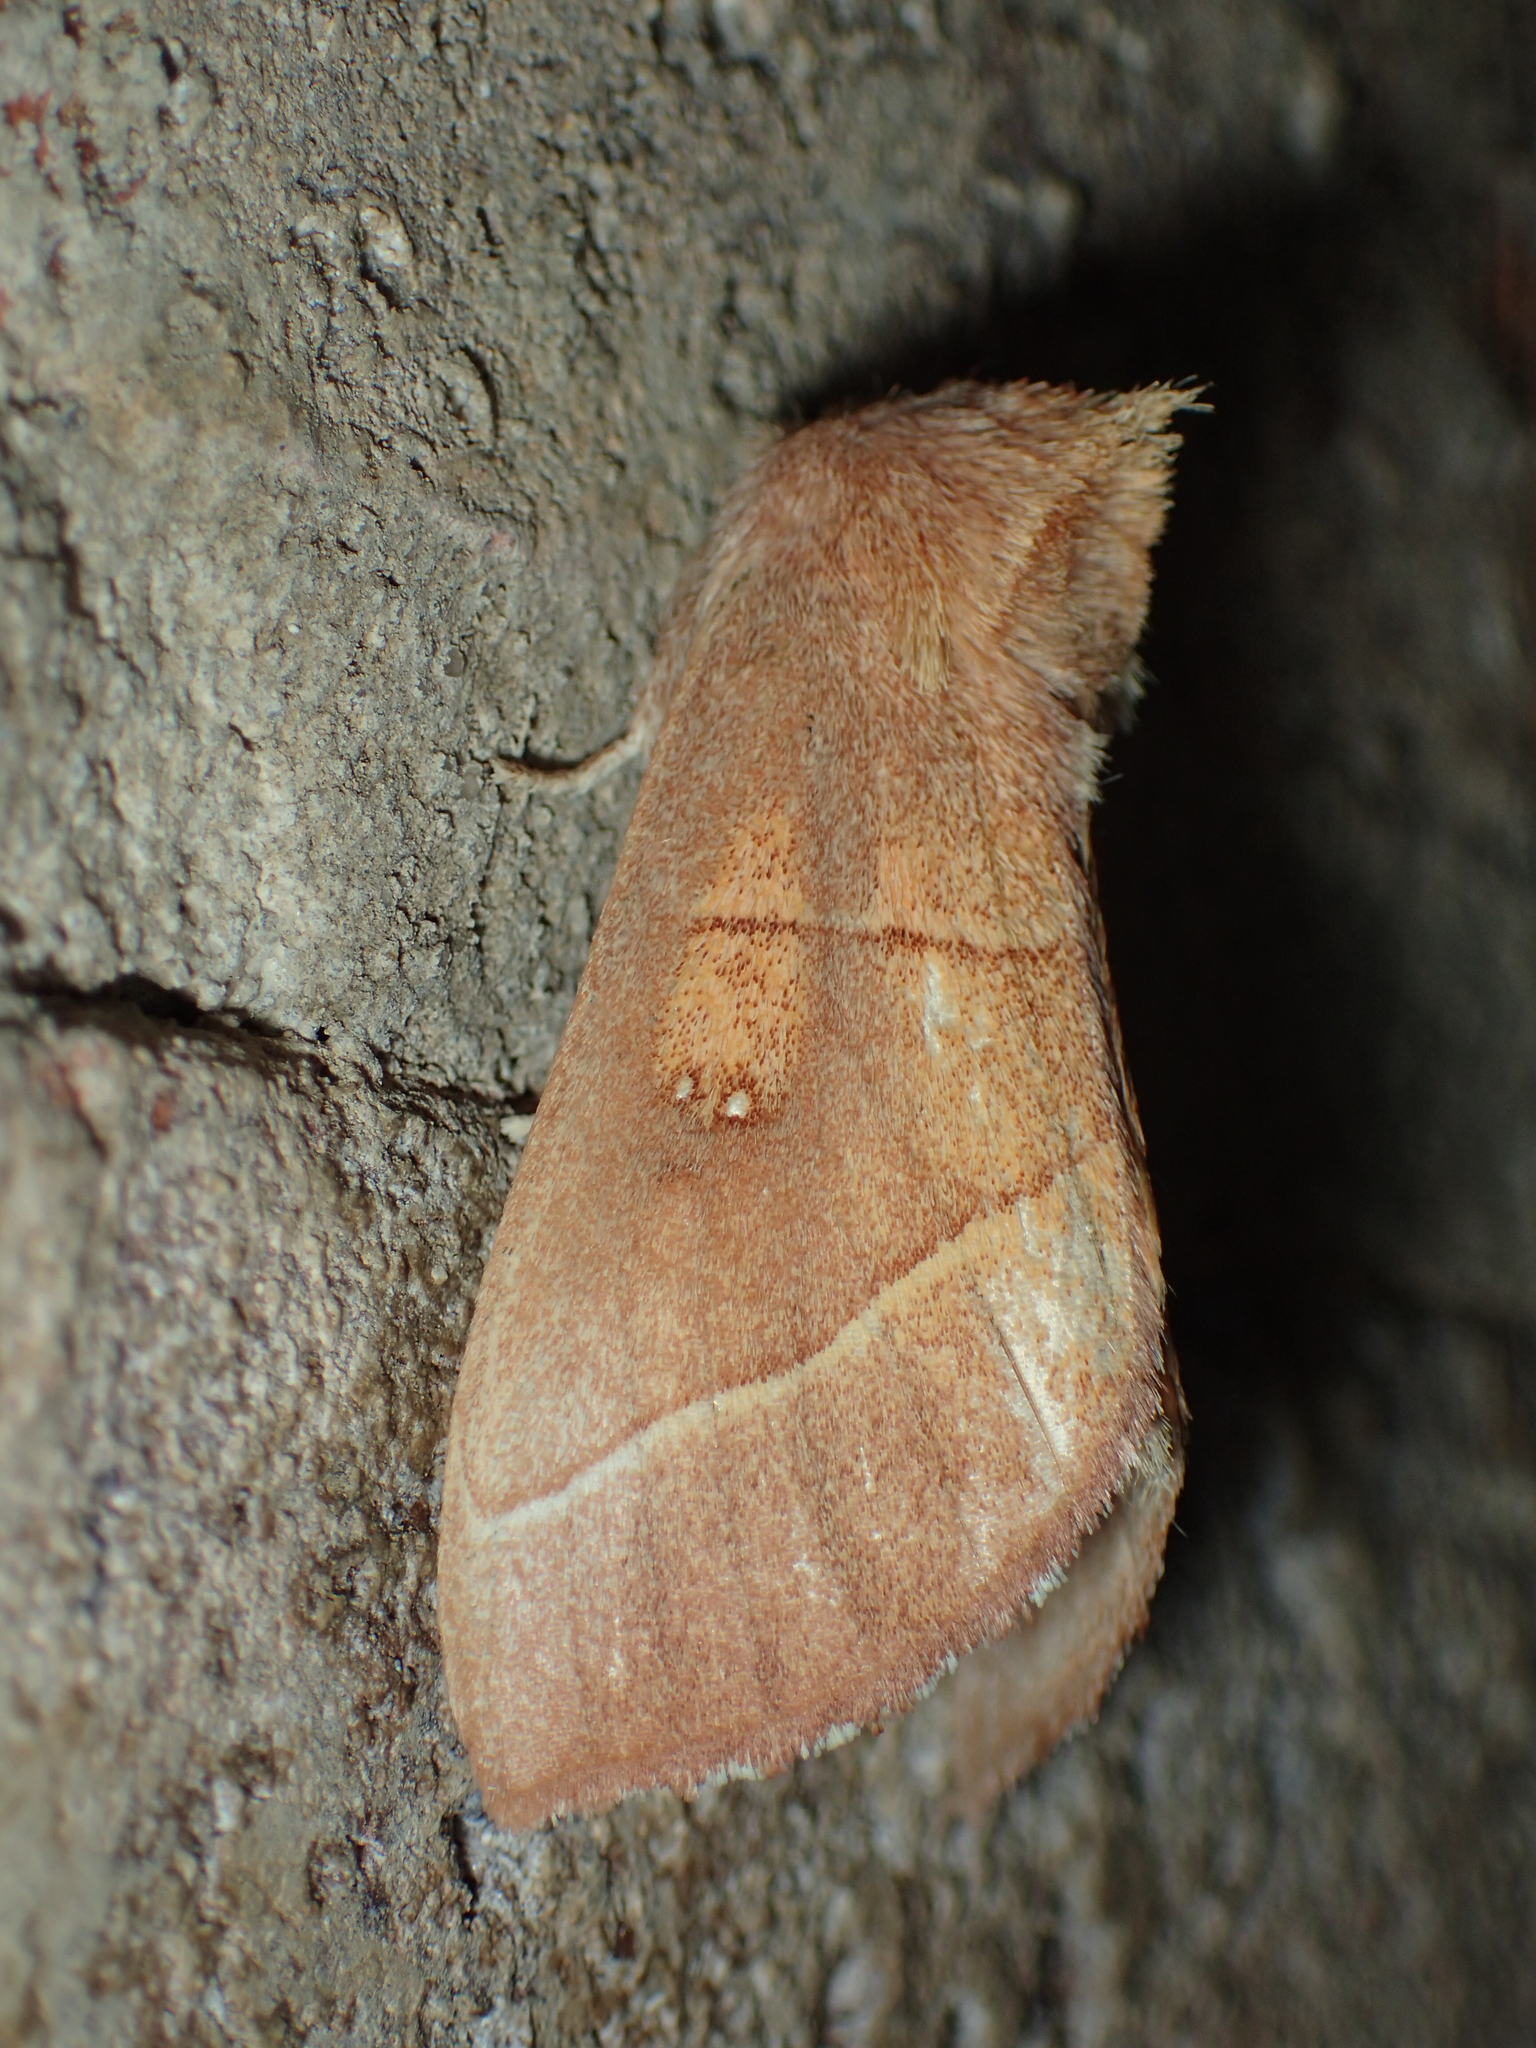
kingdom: Animalia
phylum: Arthropoda
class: Insecta
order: Lepidoptera
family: Notodontidae
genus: Nadata
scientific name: Nadata gibbosa
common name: White-dotted prominent
